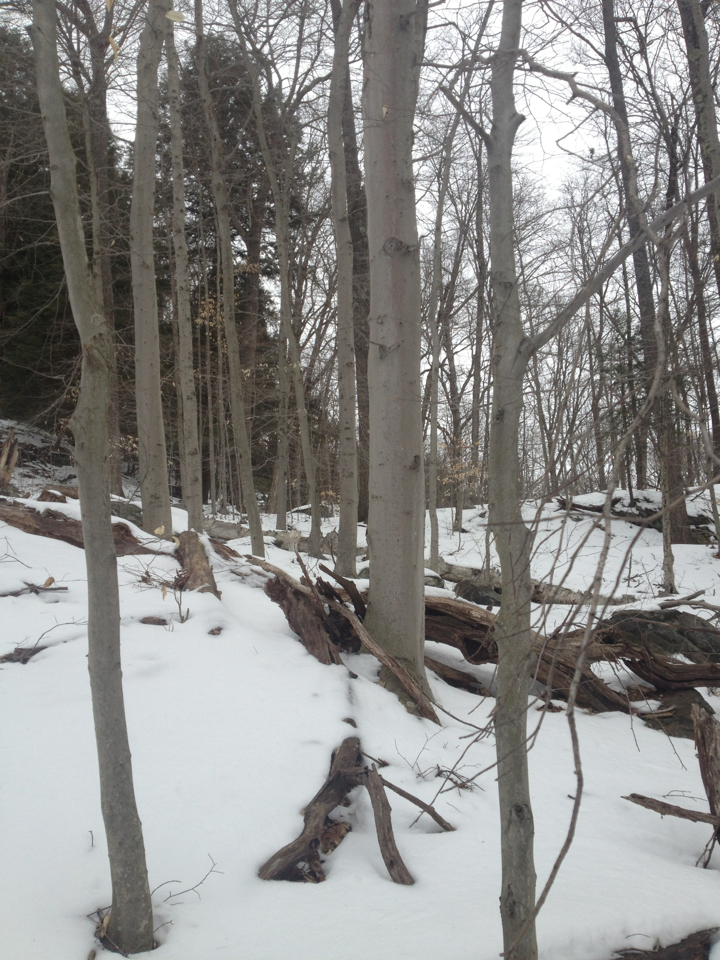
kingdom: Plantae
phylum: Tracheophyta
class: Magnoliopsida
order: Fagales
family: Fagaceae
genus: Fagus
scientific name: Fagus grandifolia
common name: American beech
